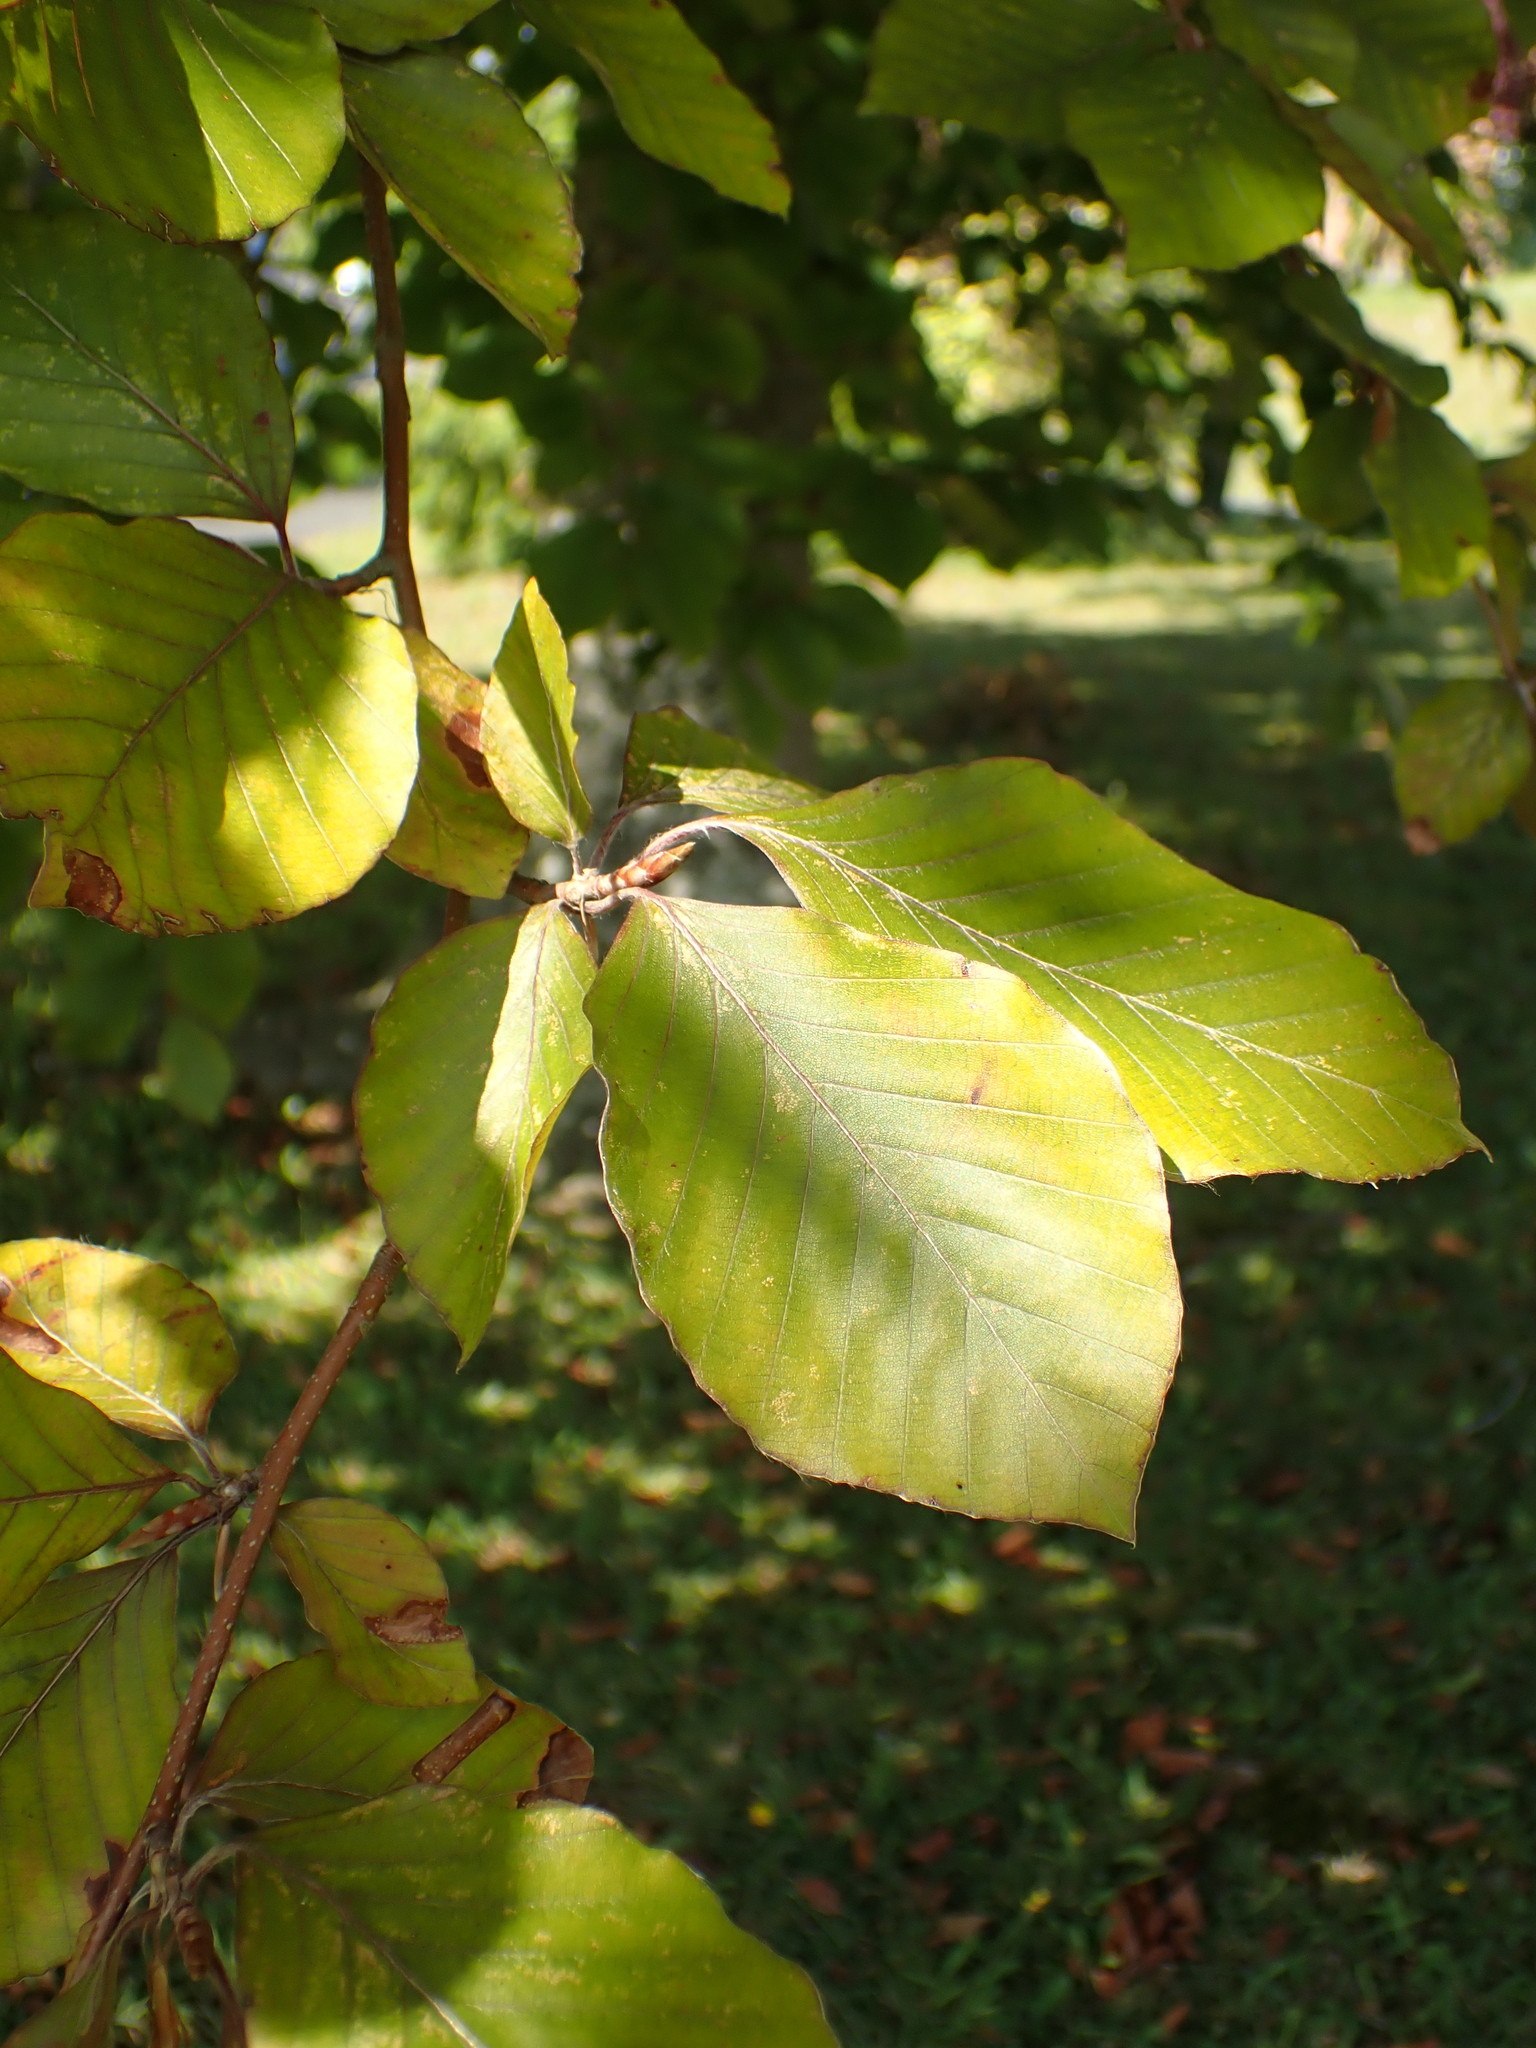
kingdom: Plantae
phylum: Tracheophyta
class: Magnoliopsida
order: Fagales
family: Fagaceae
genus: Fagus
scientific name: Fagus sylvatica
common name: Beech
